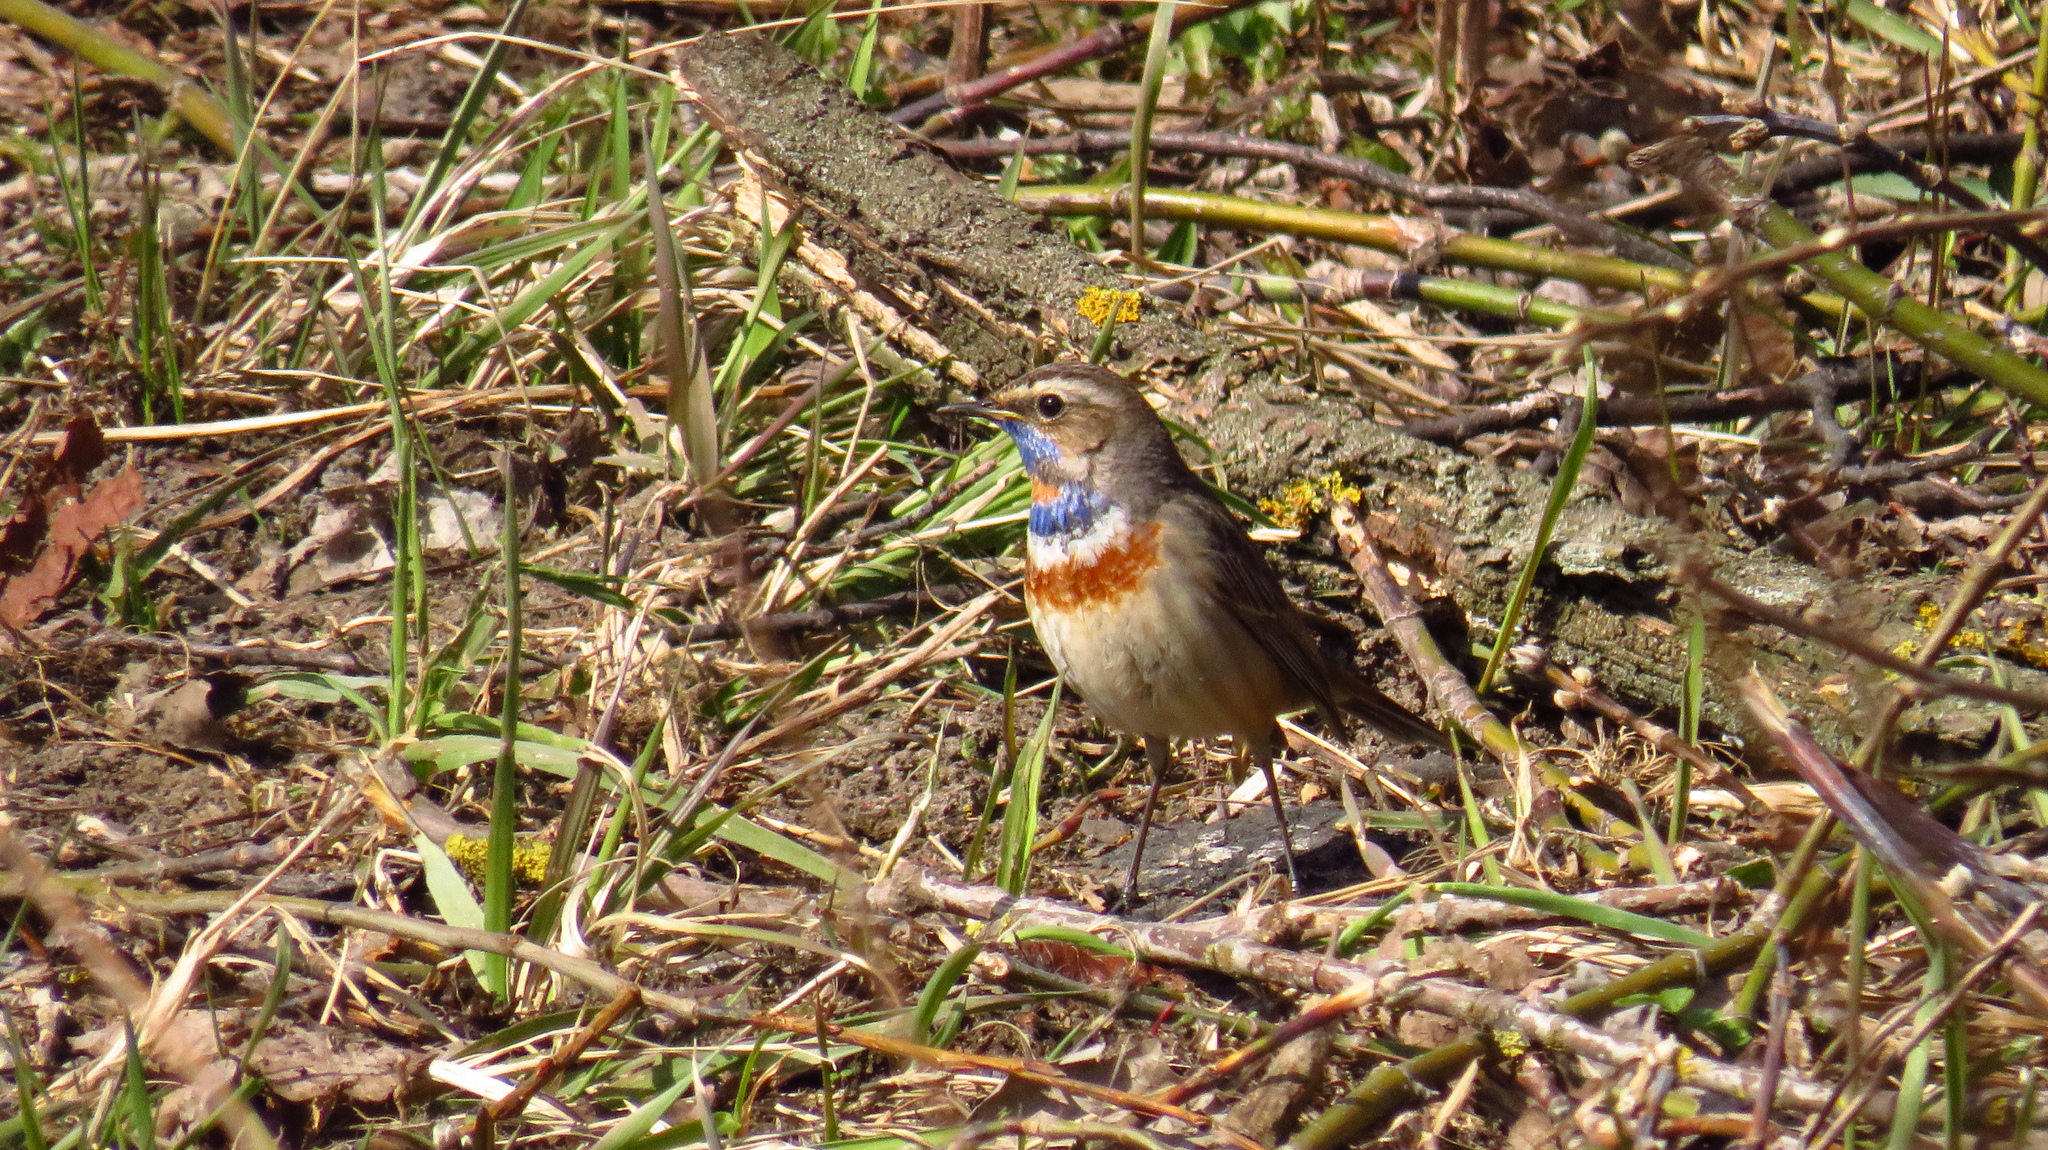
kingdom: Animalia
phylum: Chordata
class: Aves
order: Passeriformes
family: Muscicapidae
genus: Luscinia
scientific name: Luscinia svecica
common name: Bluethroat
